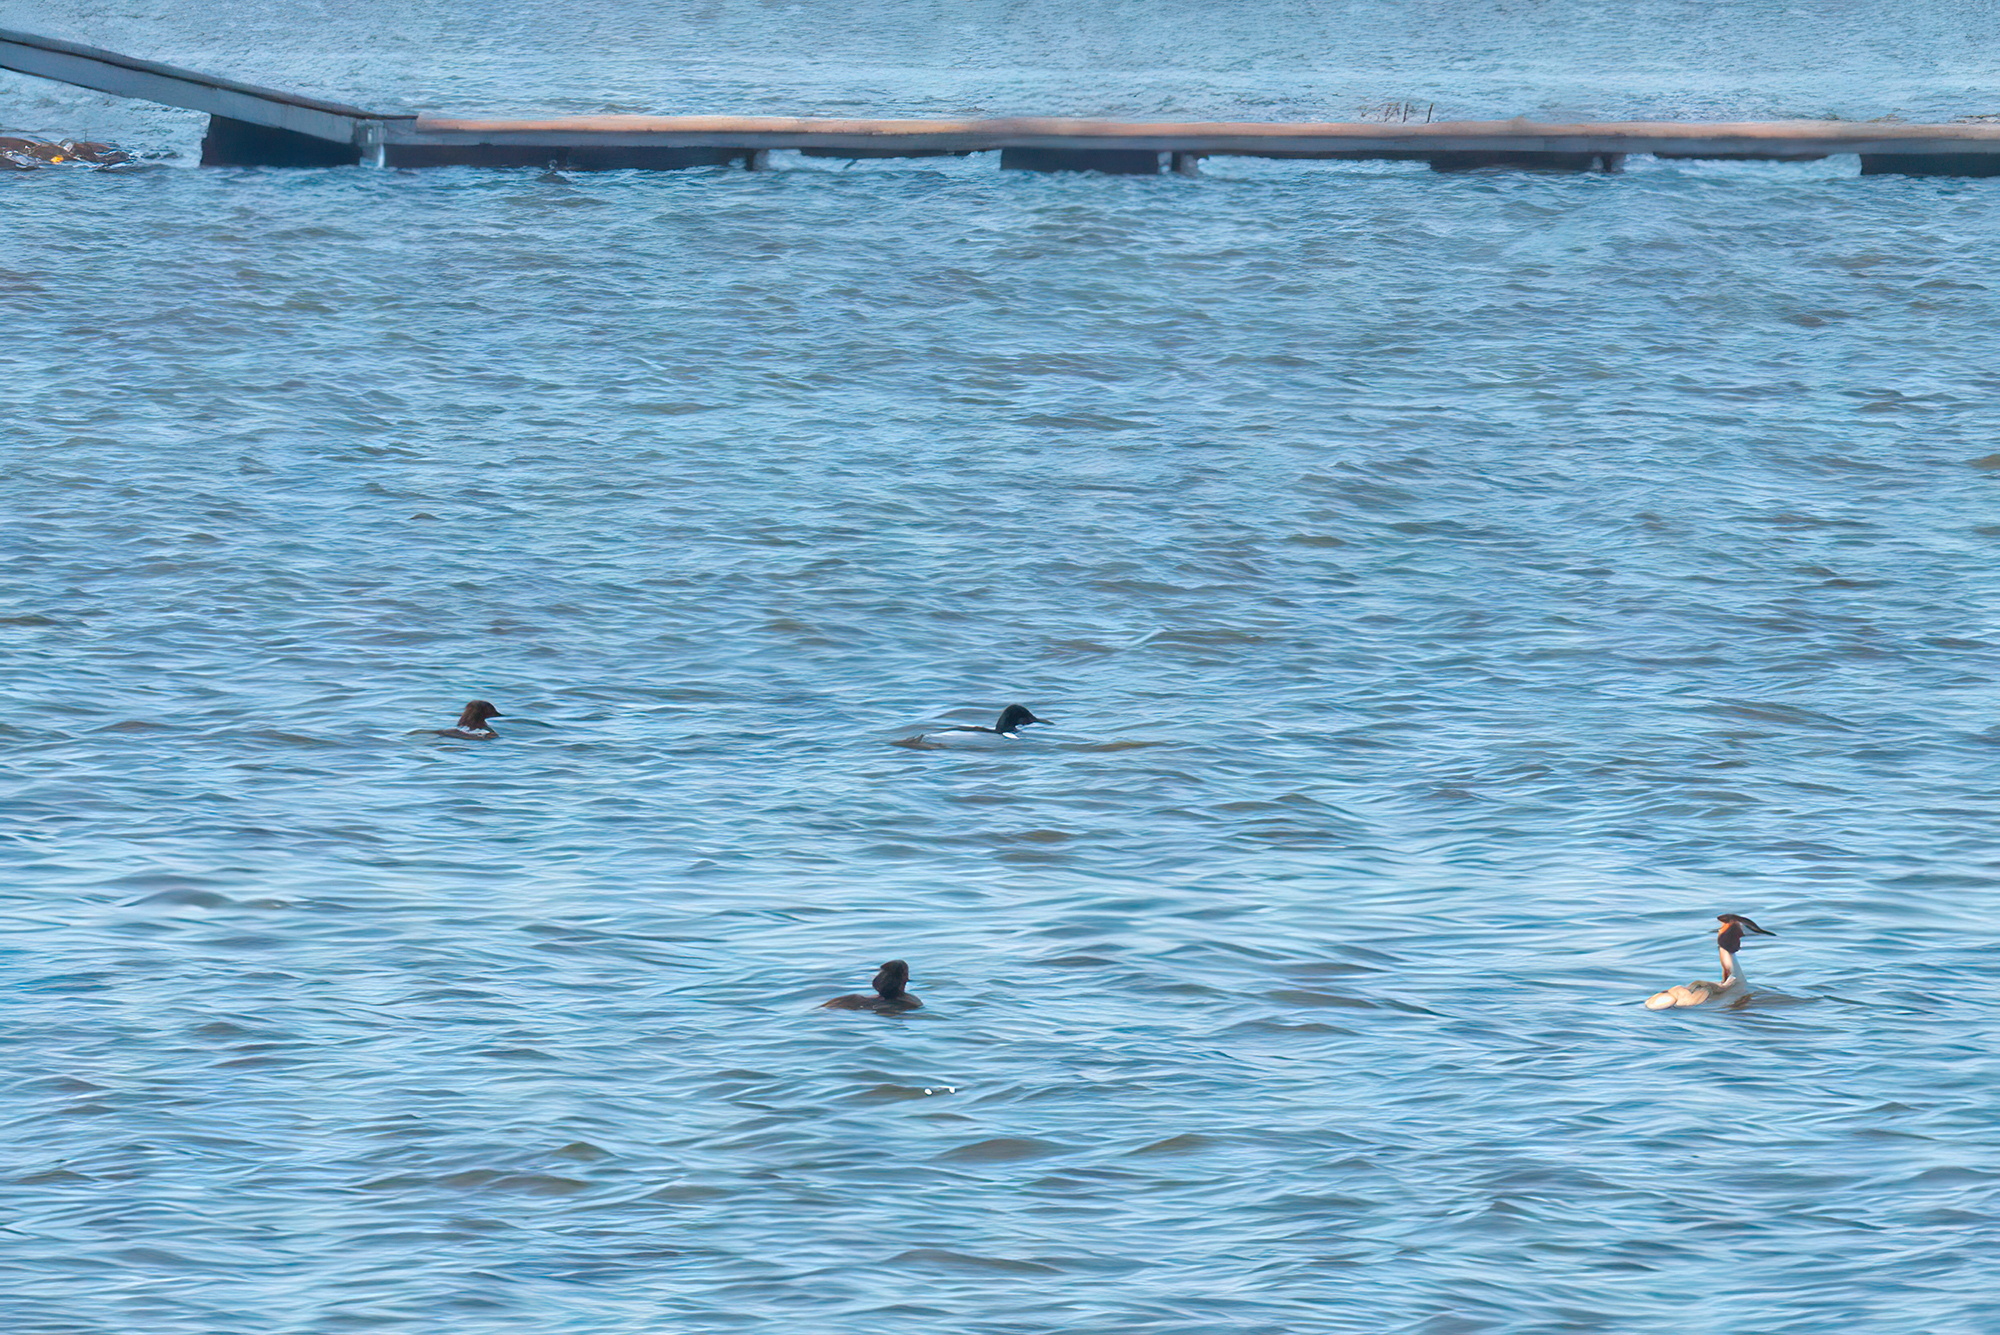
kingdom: Animalia
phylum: Chordata
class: Aves
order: Anseriformes
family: Anatidae
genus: Mergus
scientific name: Mergus merganser
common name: Common merganser
